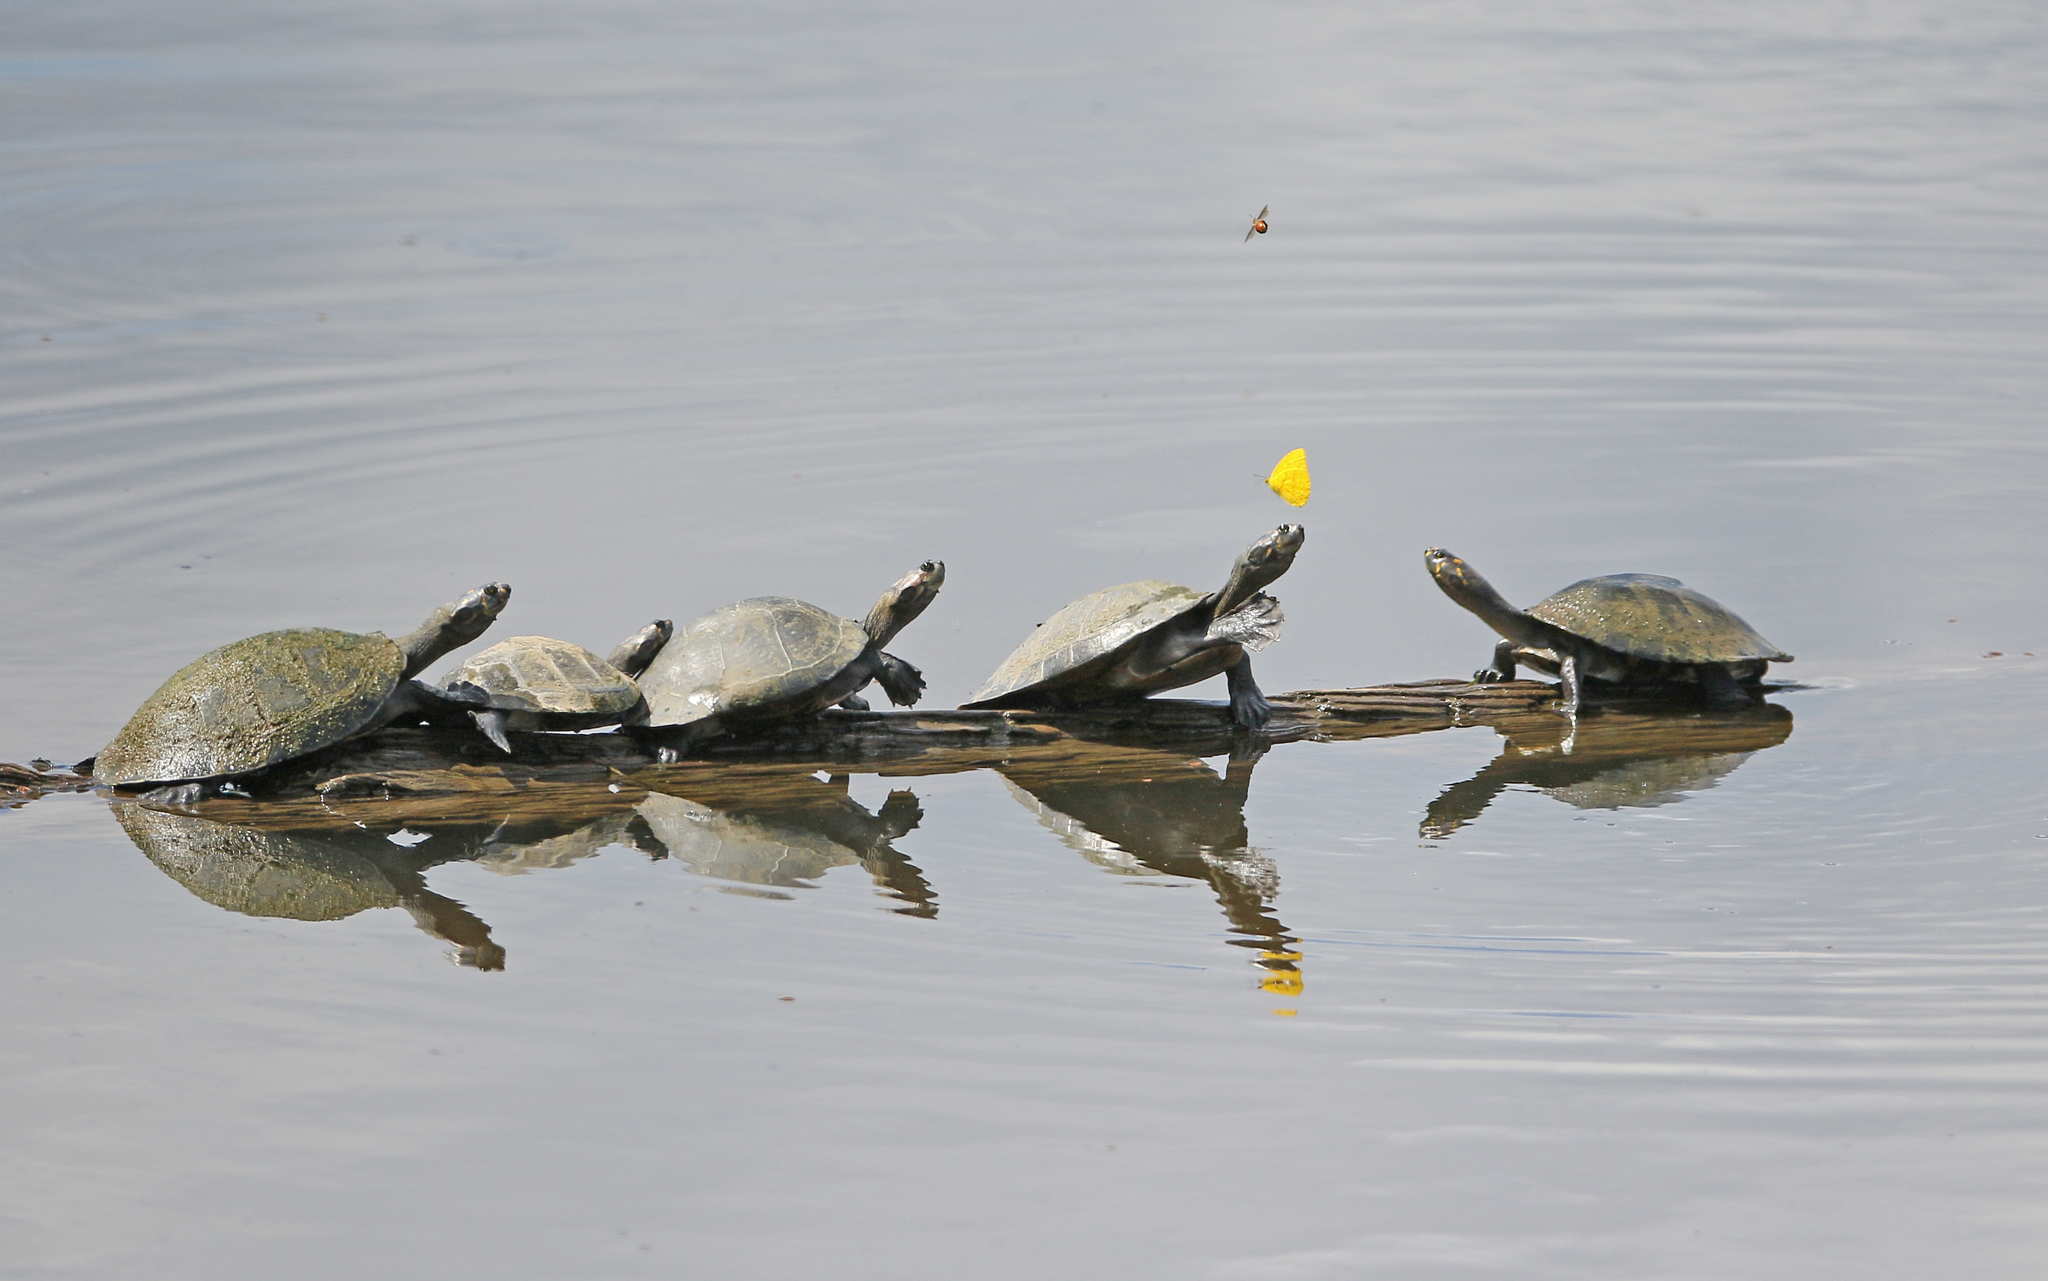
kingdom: Animalia
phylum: Chordata
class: Testudines
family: Podocnemididae
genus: Podocnemis
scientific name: Podocnemis unifilis
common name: Yellow-spotted amazon river turtle
